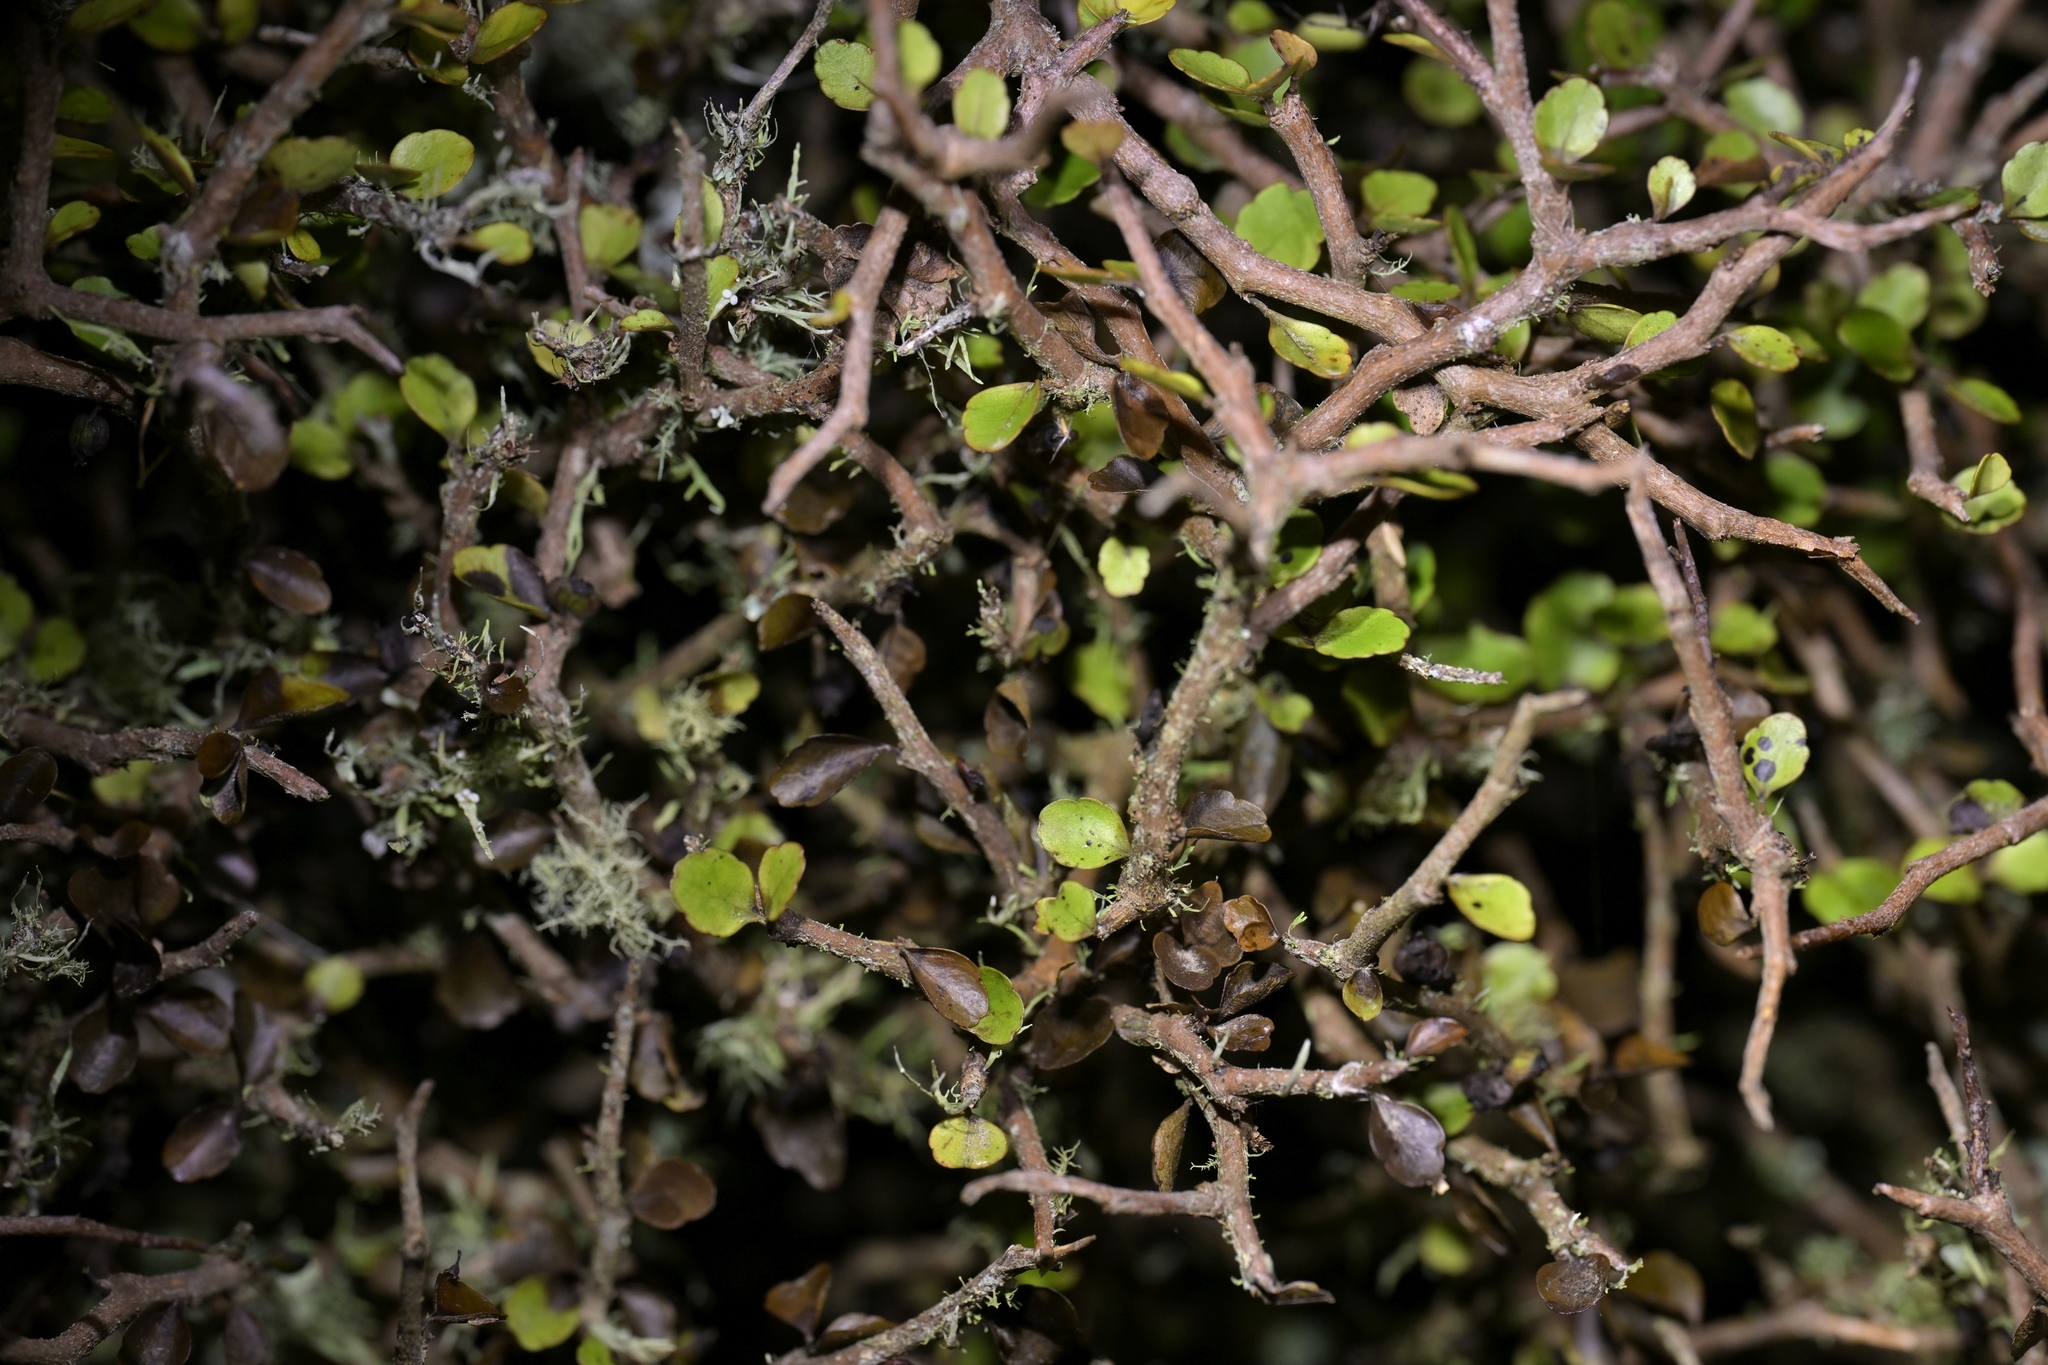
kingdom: Plantae
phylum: Tracheophyta
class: Magnoliopsida
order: Apiales
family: Araliaceae
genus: Raukaua
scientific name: Raukaua anomalus
